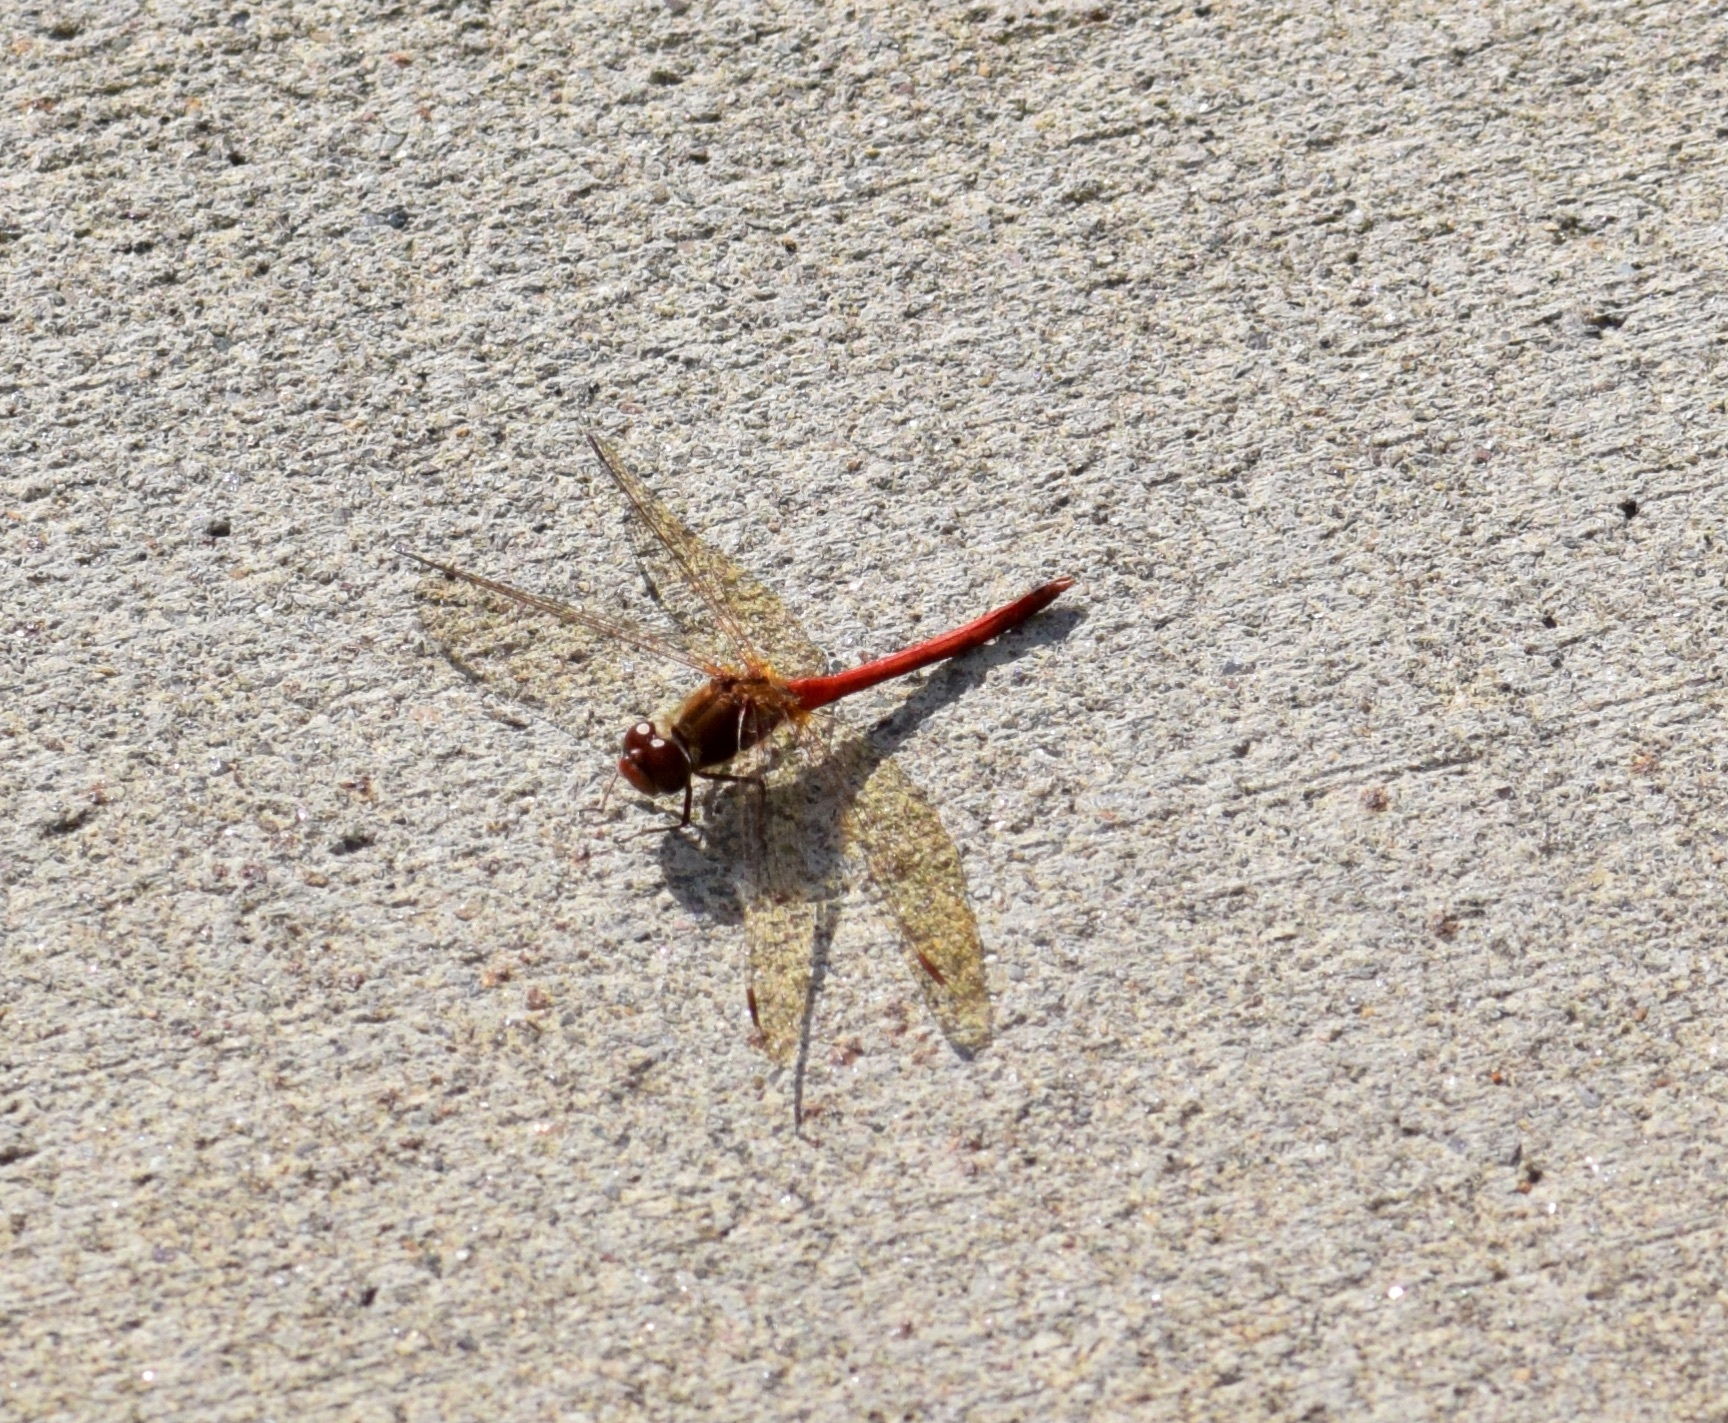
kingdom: Animalia
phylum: Arthropoda
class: Insecta
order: Odonata
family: Libellulidae
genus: Sympetrum
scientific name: Sympetrum vicinum
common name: Autumn meadowhawk
